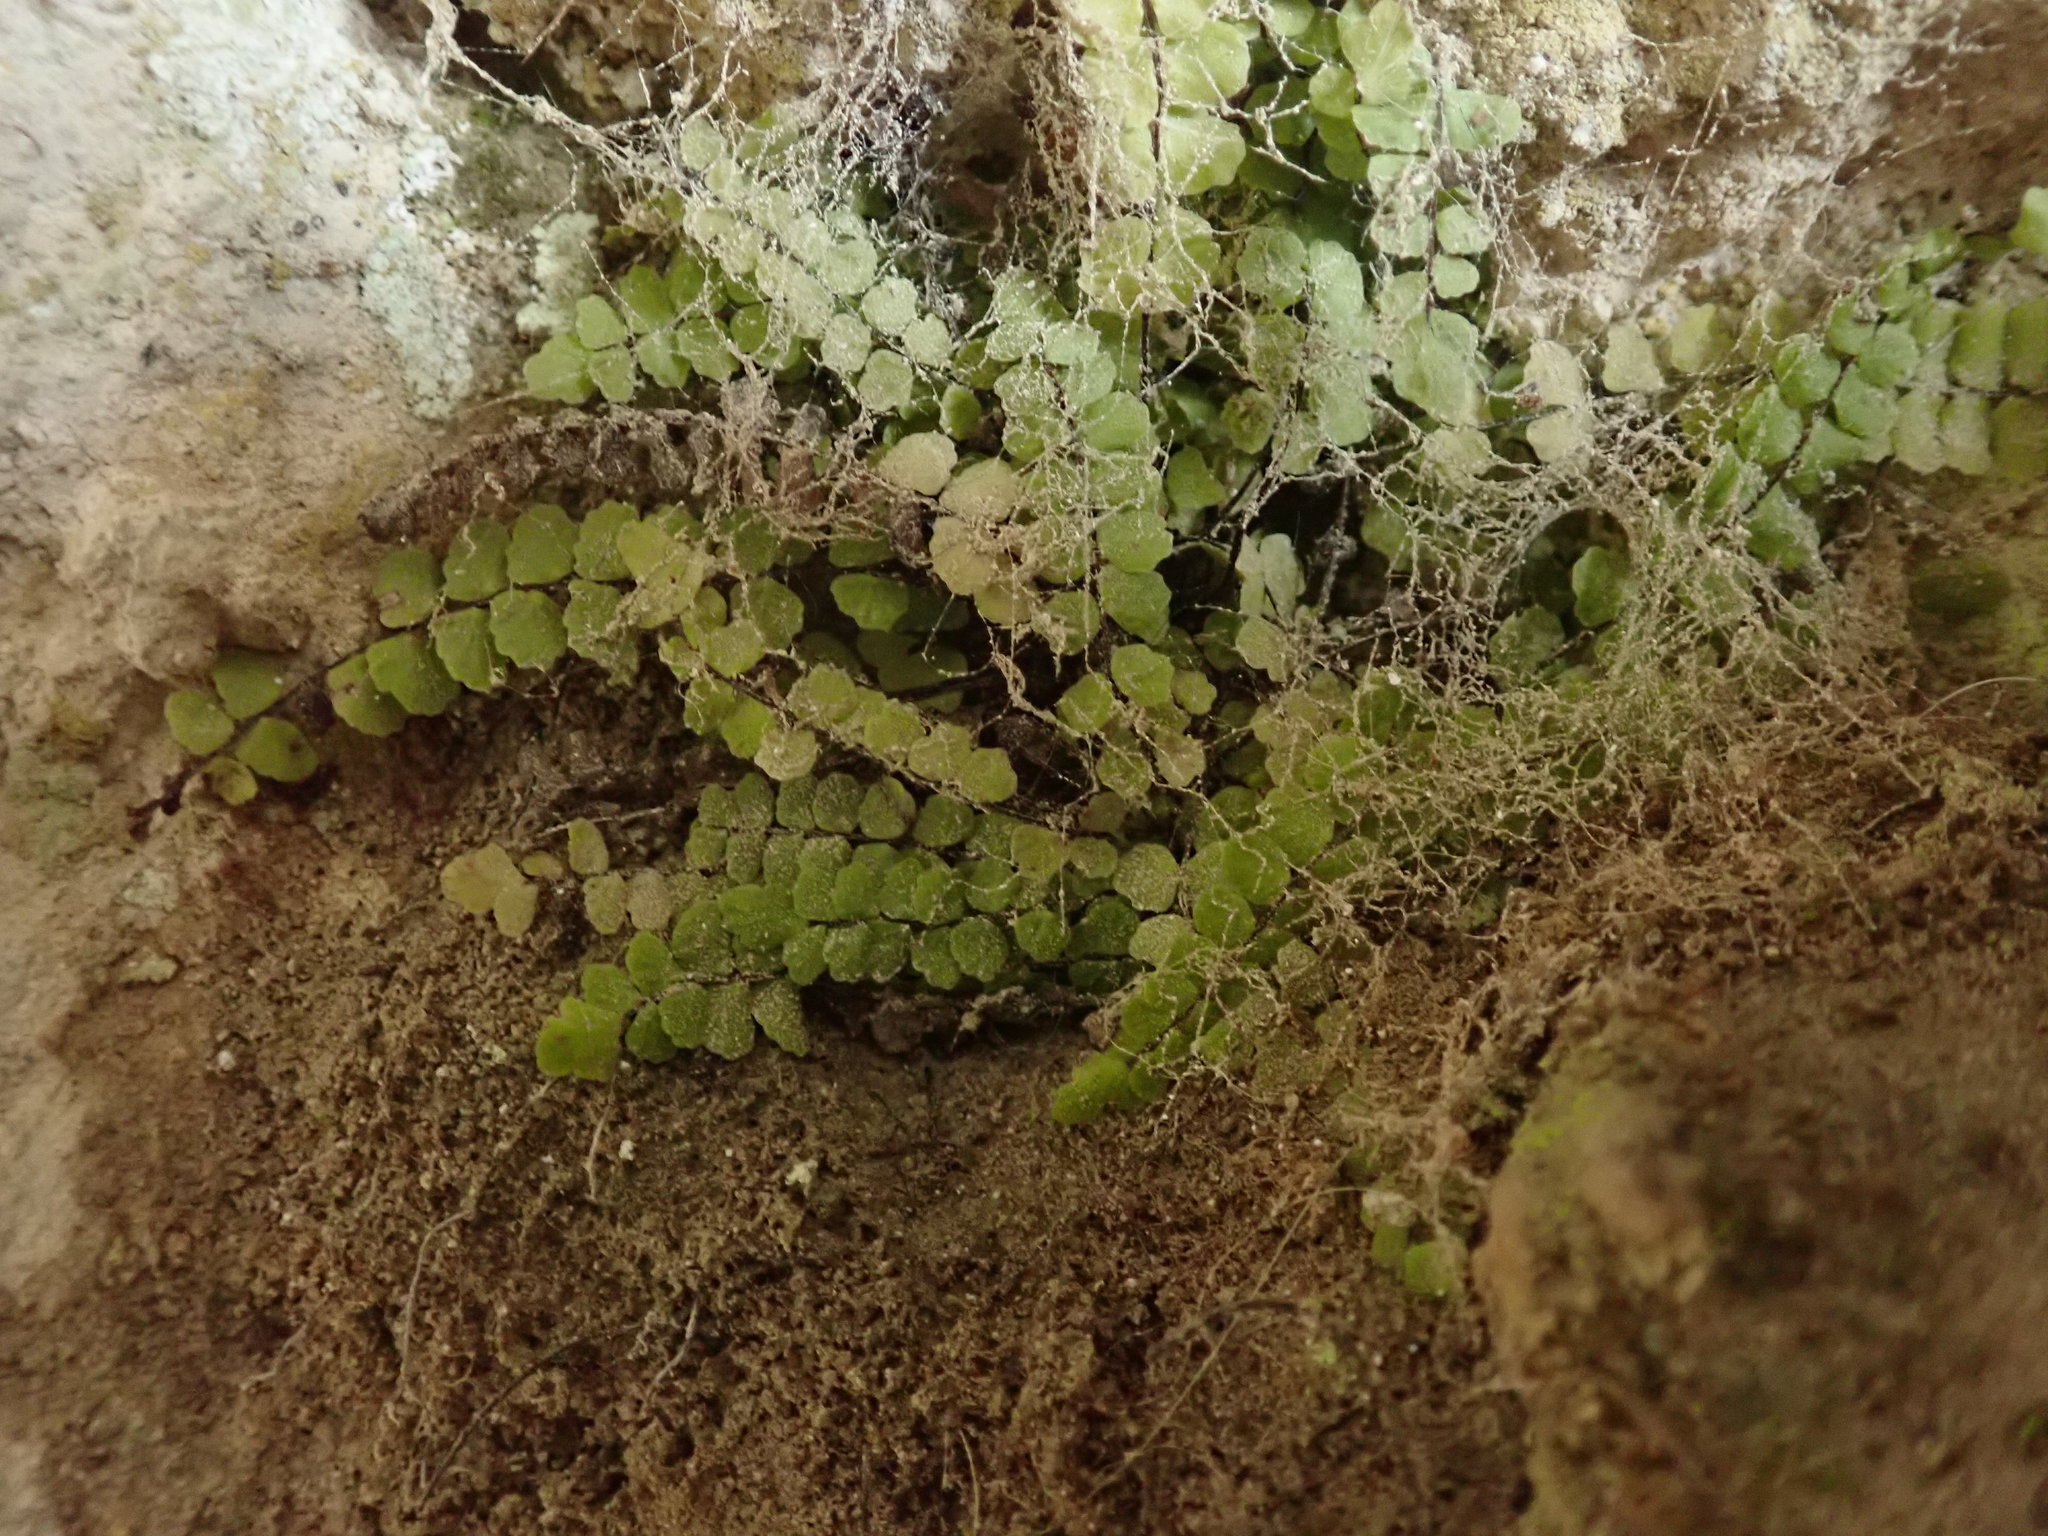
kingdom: Plantae
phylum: Tracheophyta
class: Polypodiopsida
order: Polypodiales
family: Aspleniaceae
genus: Asplenium
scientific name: Asplenium trichomanes
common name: Maidenhair spleenwort
